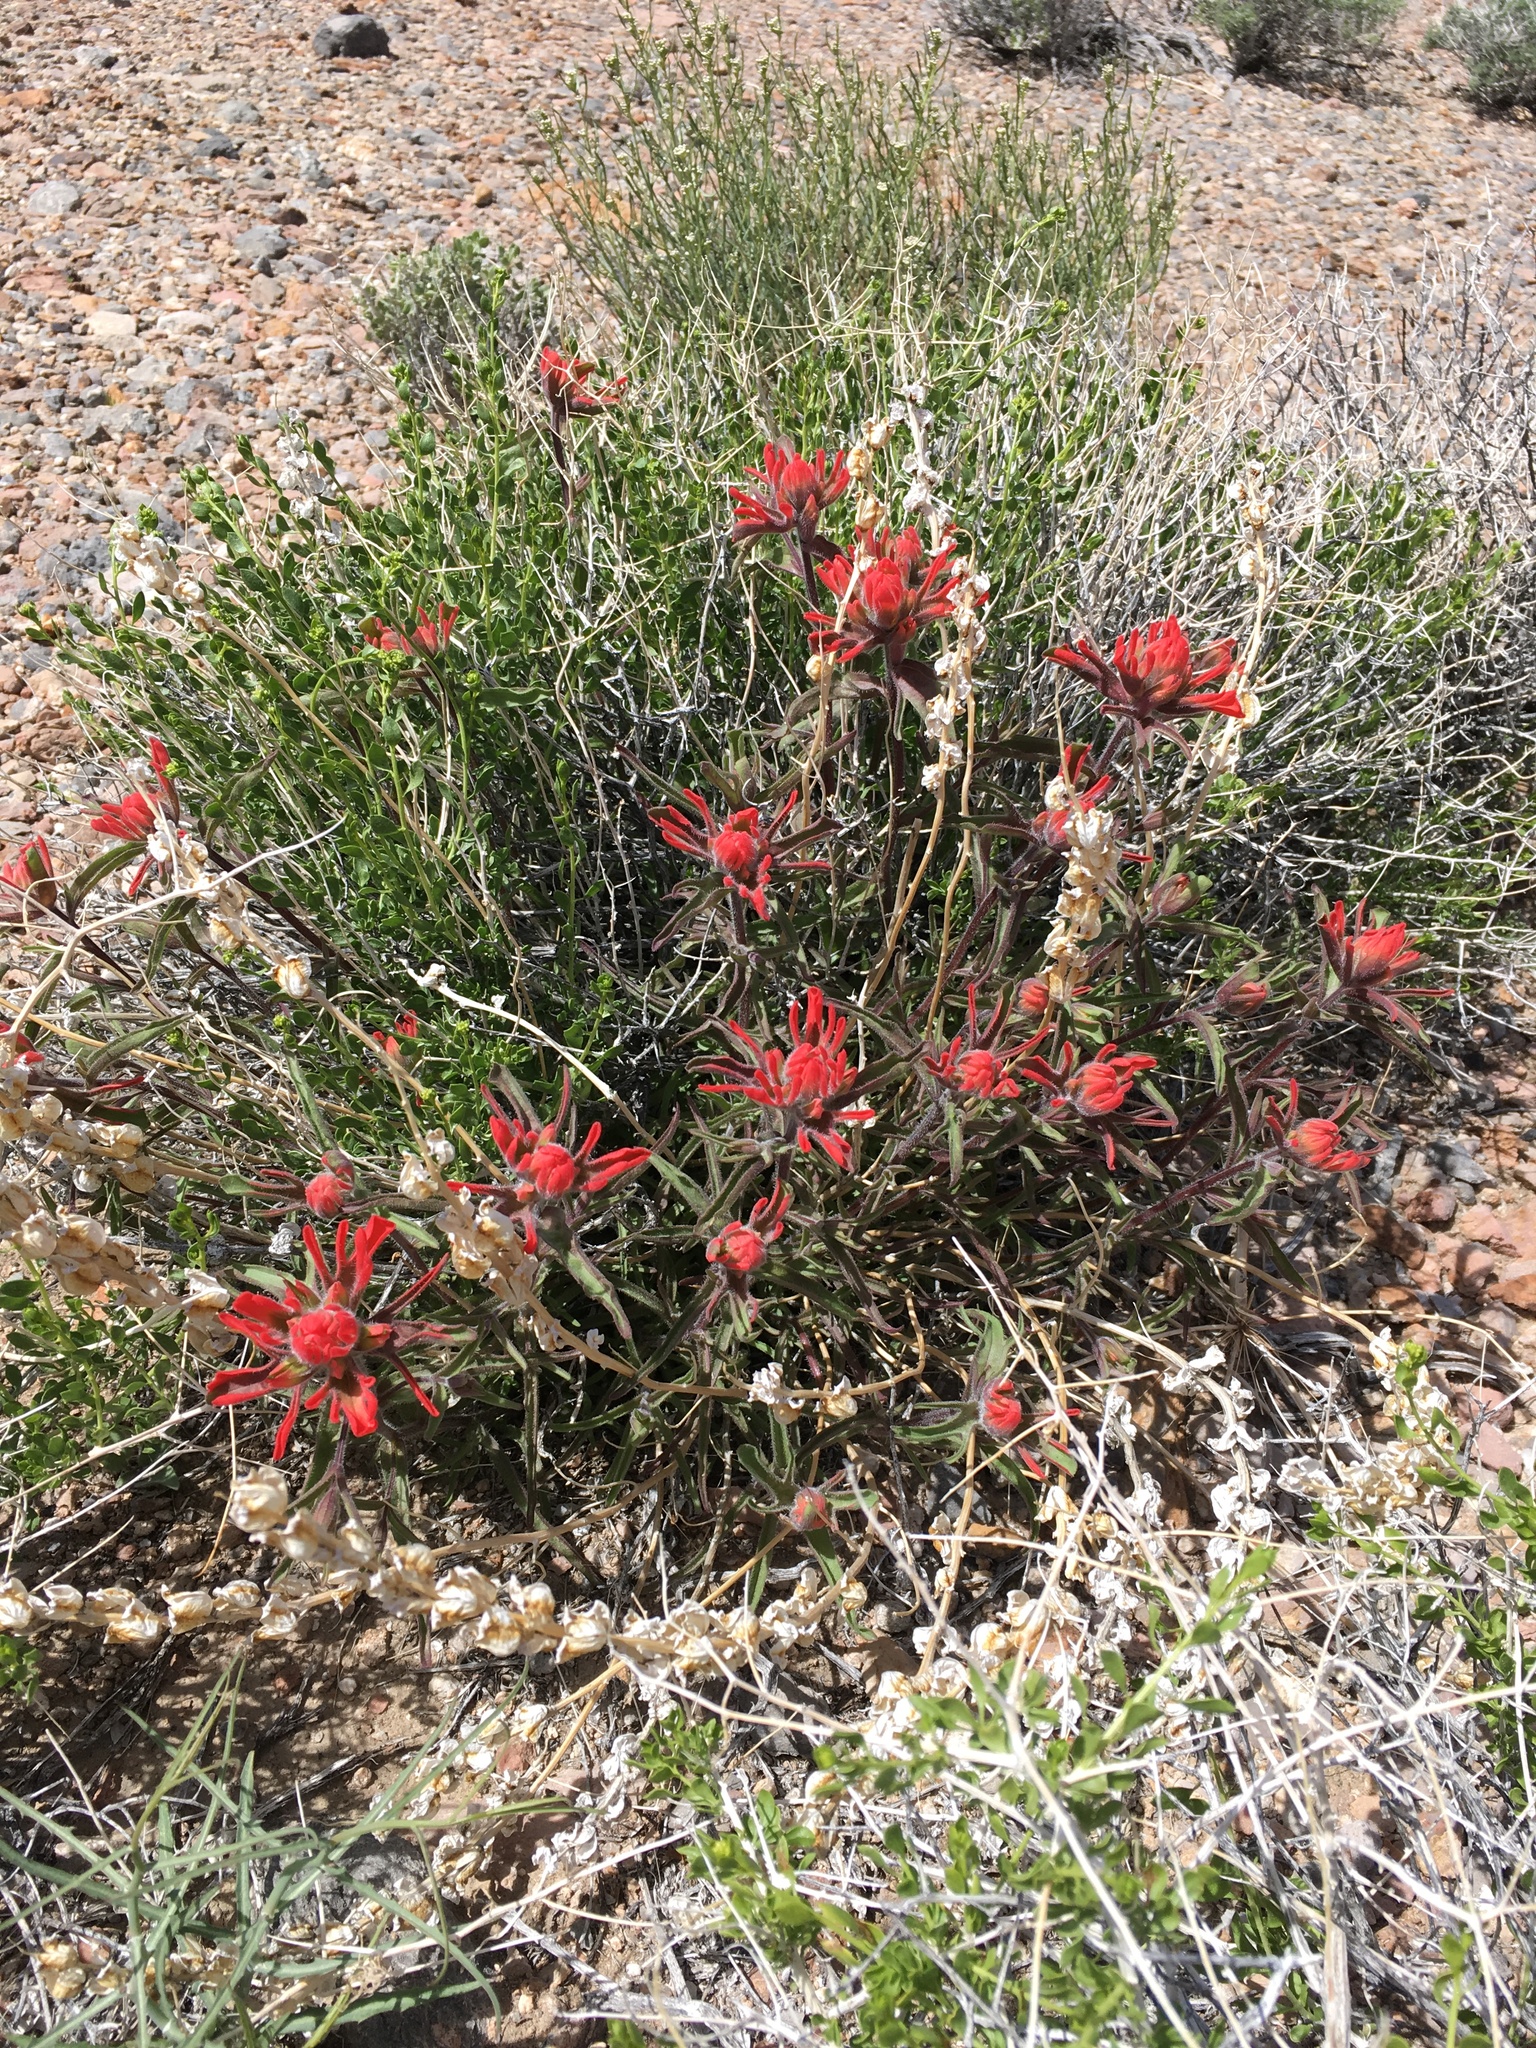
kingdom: Plantae
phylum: Tracheophyta
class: Magnoliopsida
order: Lamiales
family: Orobanchaceae
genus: Castilleja
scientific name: Castilleja chromosa
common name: Desert paintbrush
